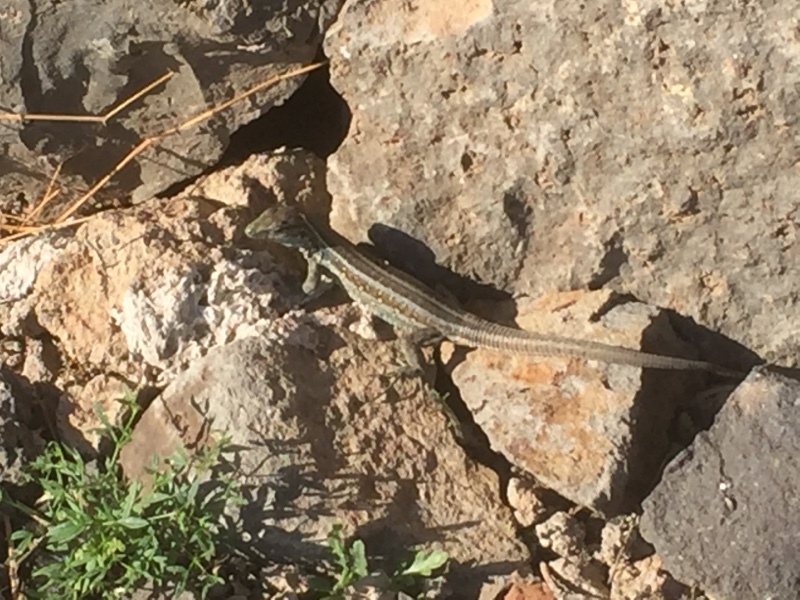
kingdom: Animalia
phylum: Chordata
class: Squamata
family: Lacertidae
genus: Gallotia
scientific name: Gallotia galloti
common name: Gallot's lizard
